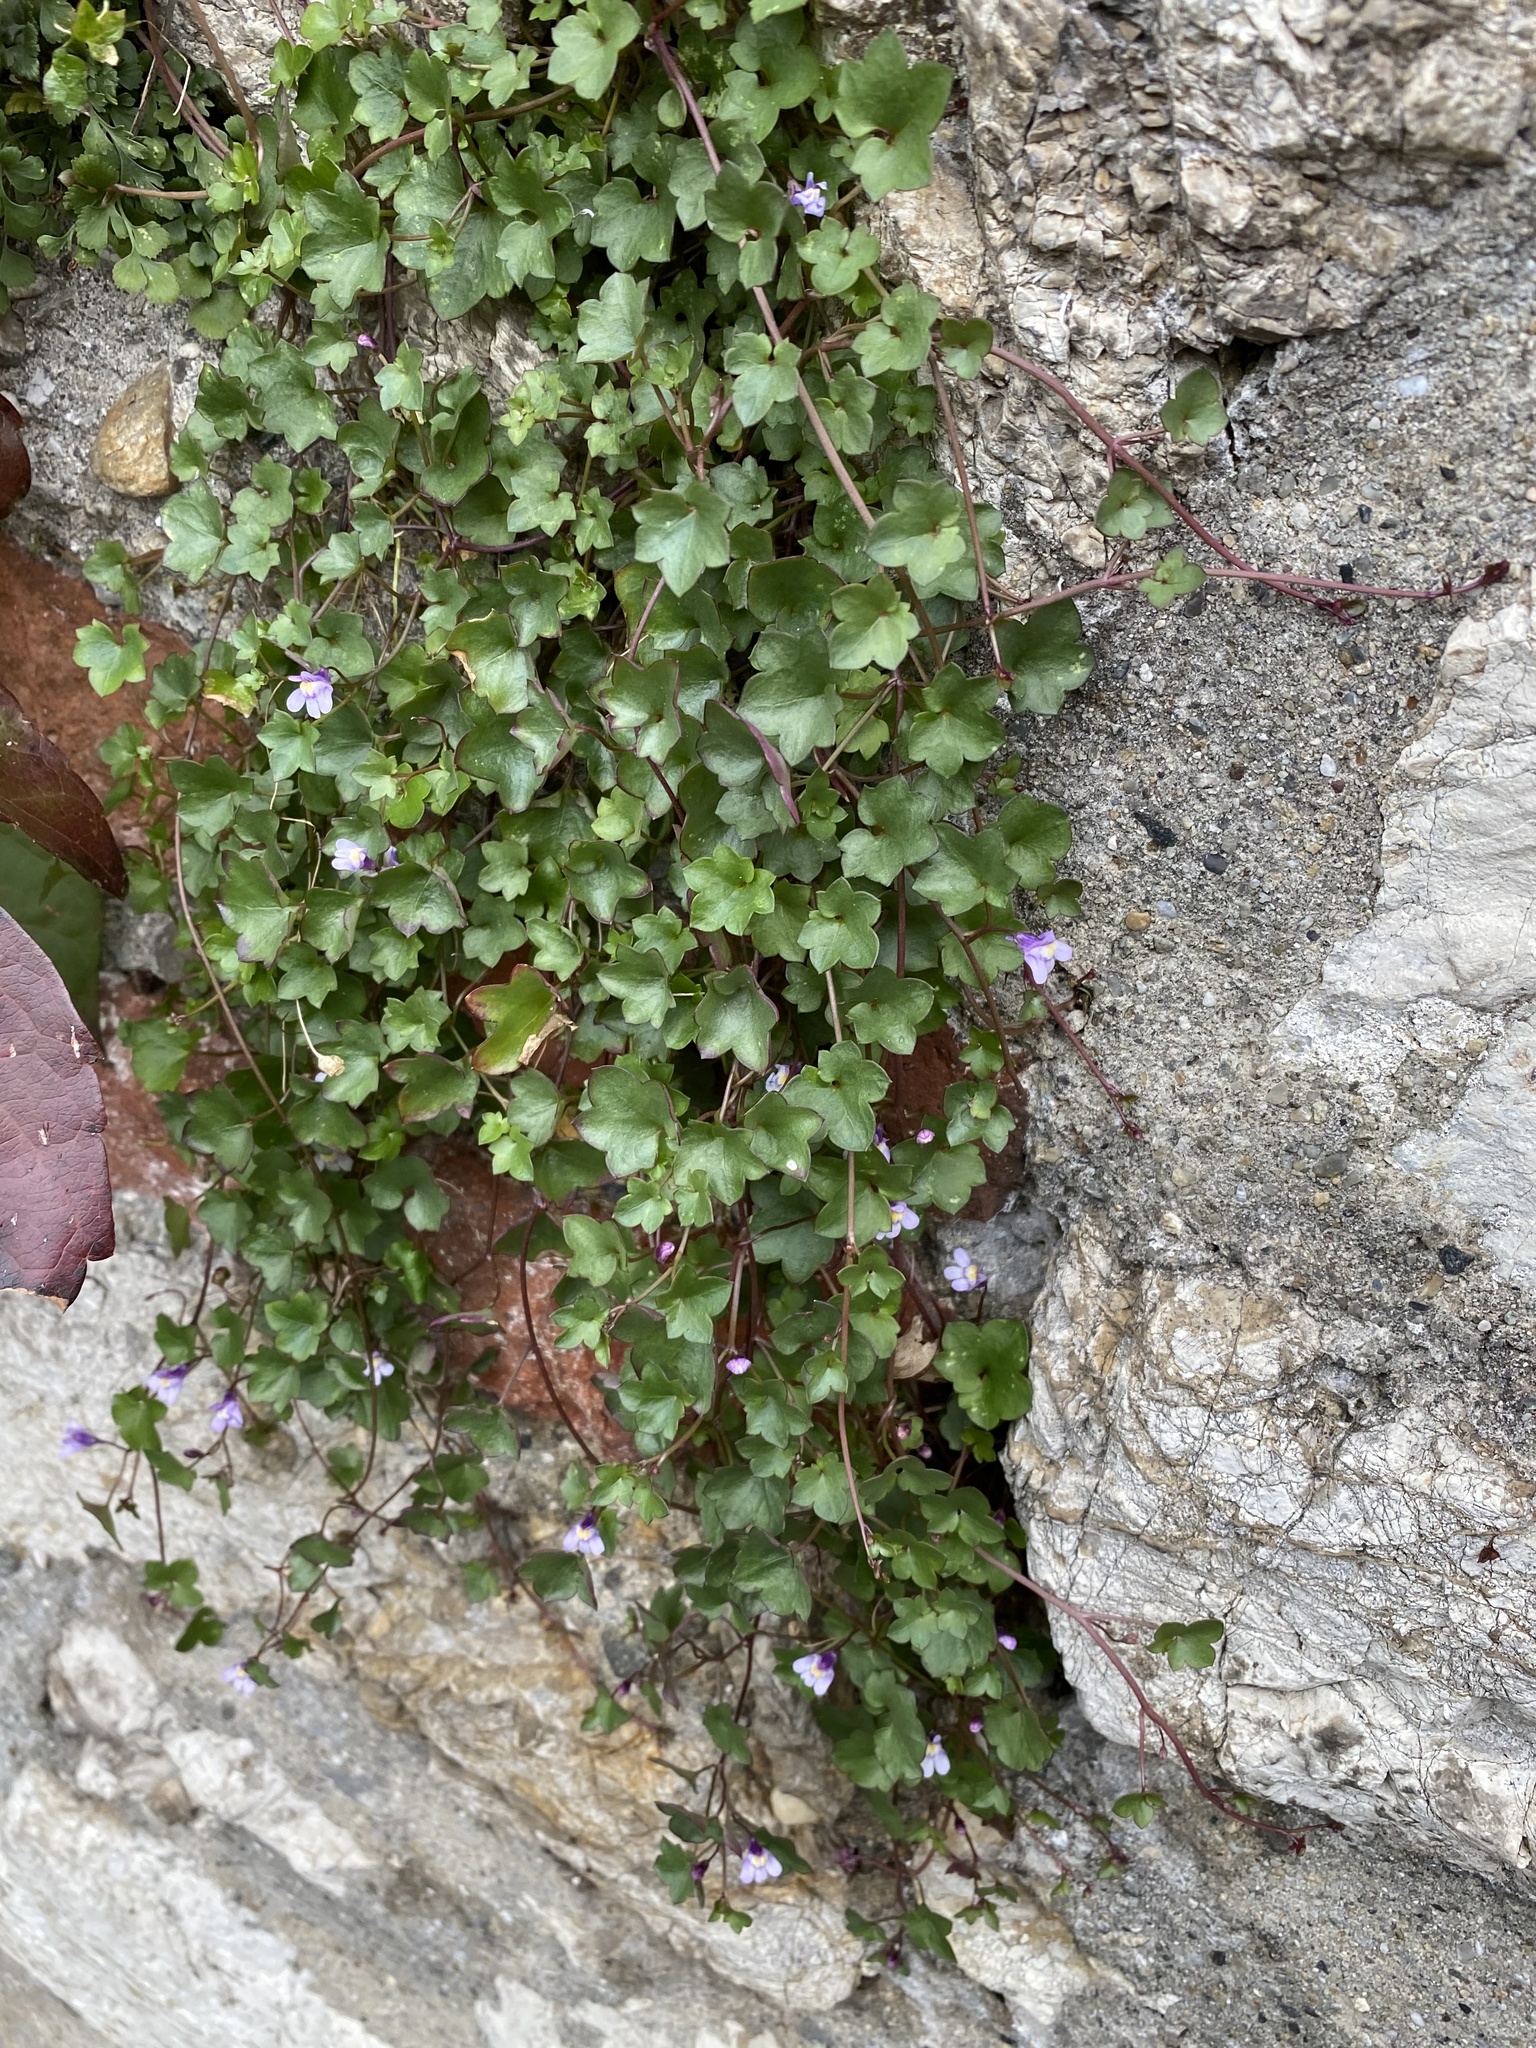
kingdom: Plantae
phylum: Tracheophyta
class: Magnoliopsida
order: Lamiales
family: Plantaginaceae
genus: Cymbalaria
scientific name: Cymbalaria muralis
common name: Ivy-leaved toadflax
